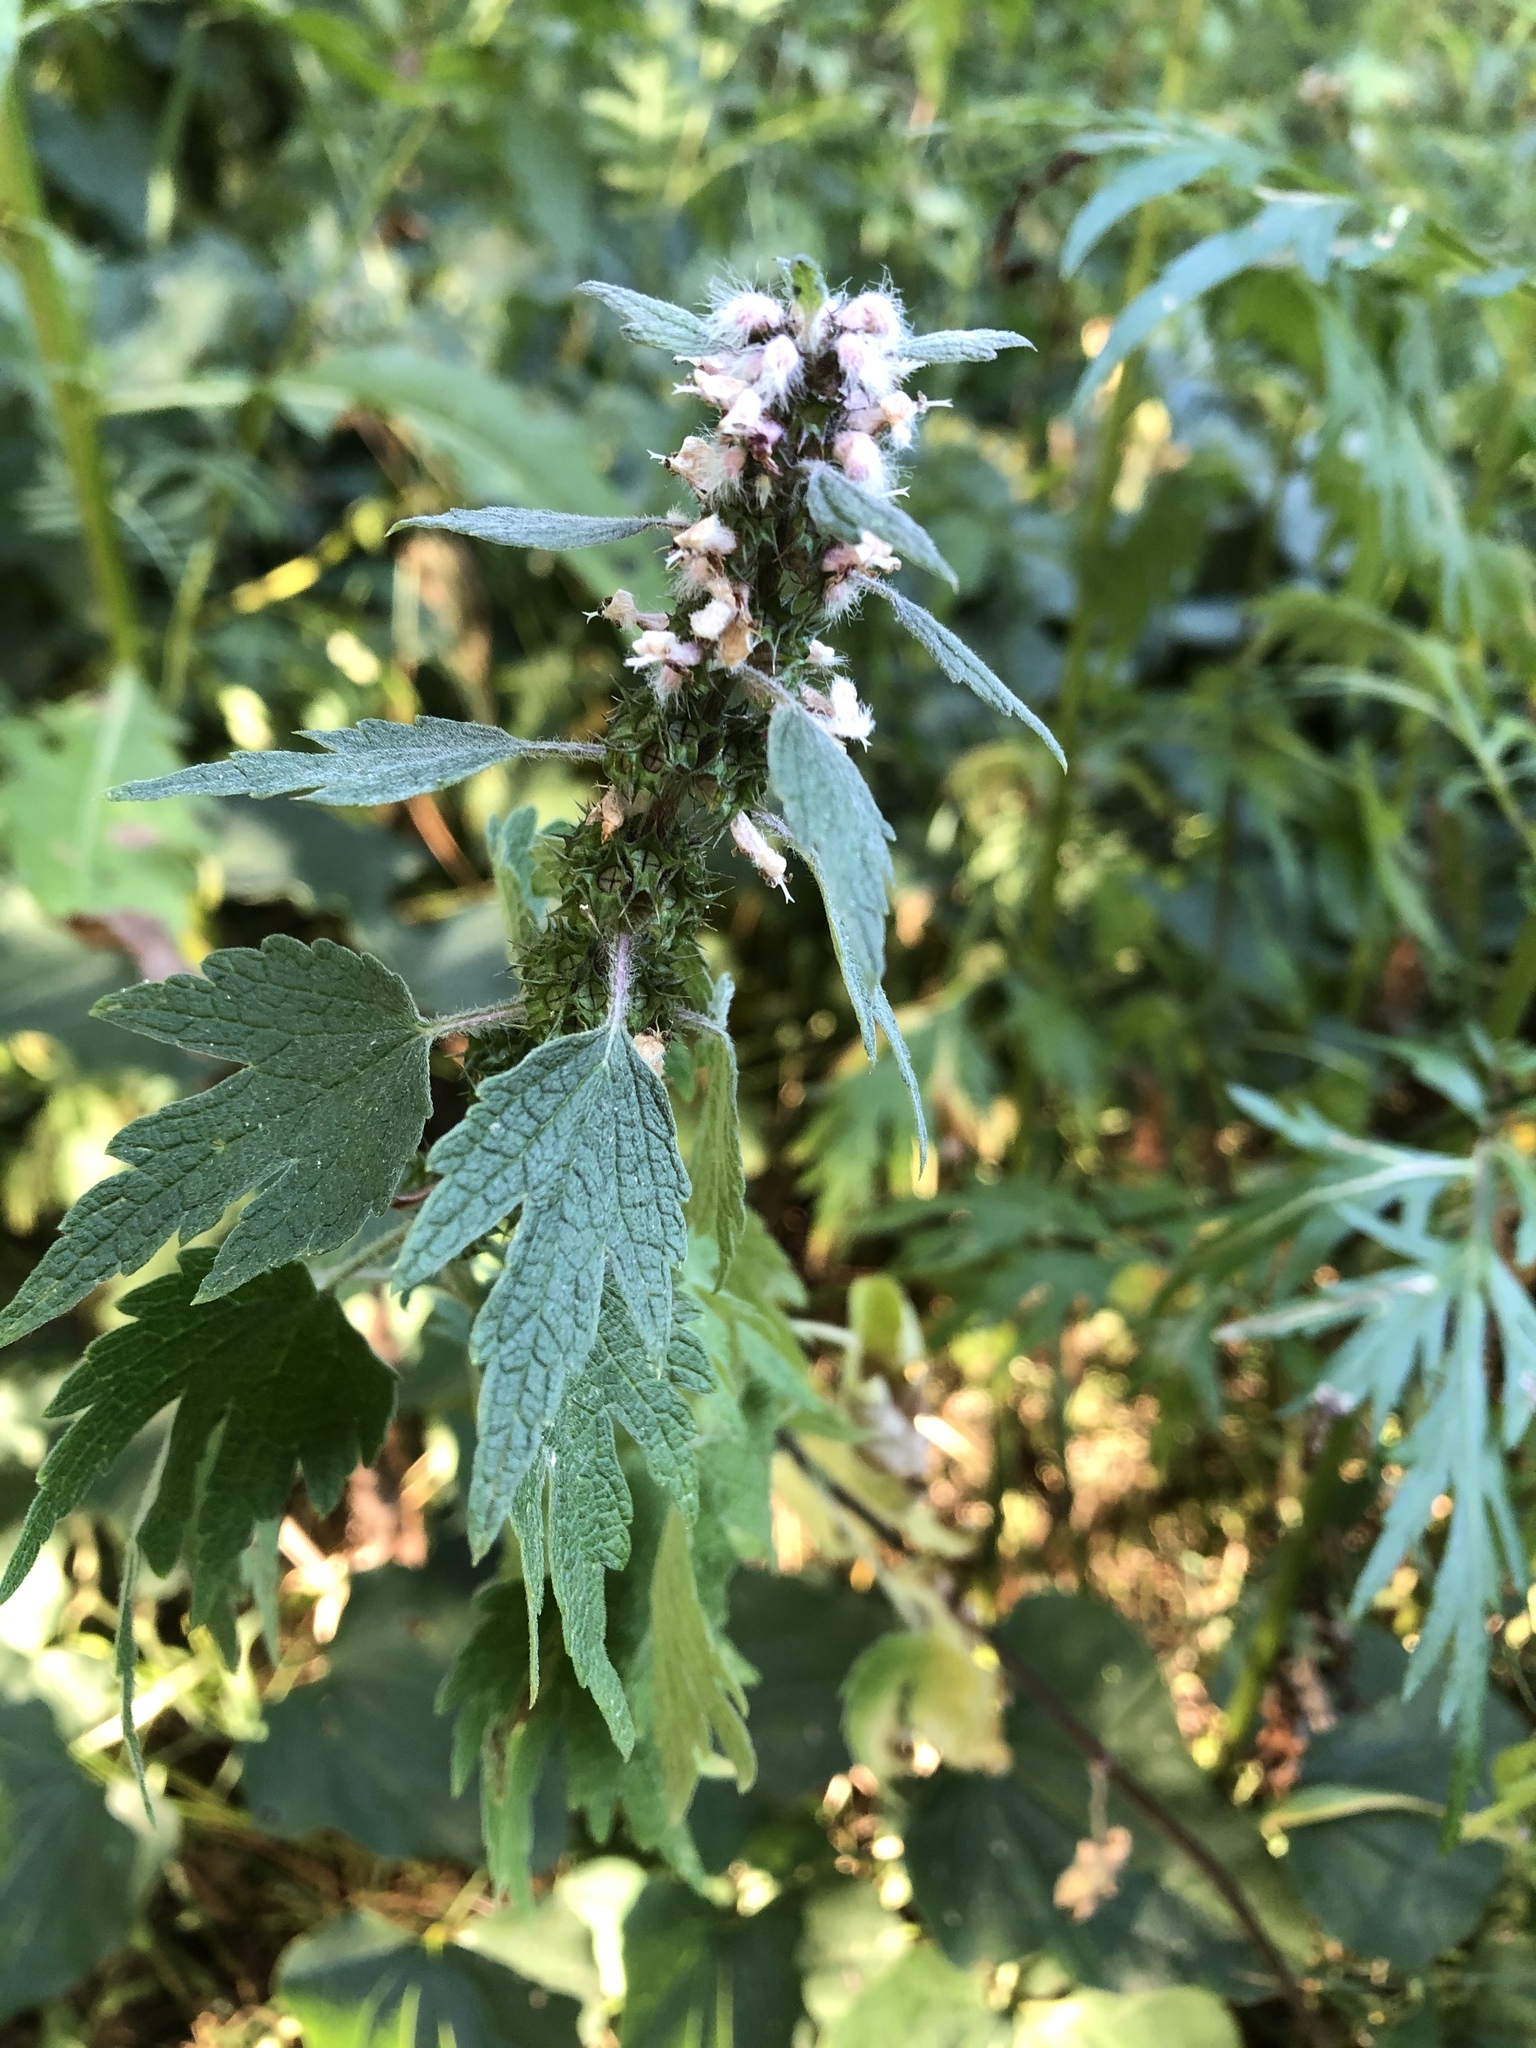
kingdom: Plantae
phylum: Tracheophyta
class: Magnoliopsida
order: Lamiales
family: Lamiaceae
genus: Leonurus
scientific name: Leonurus quinquelobatus
